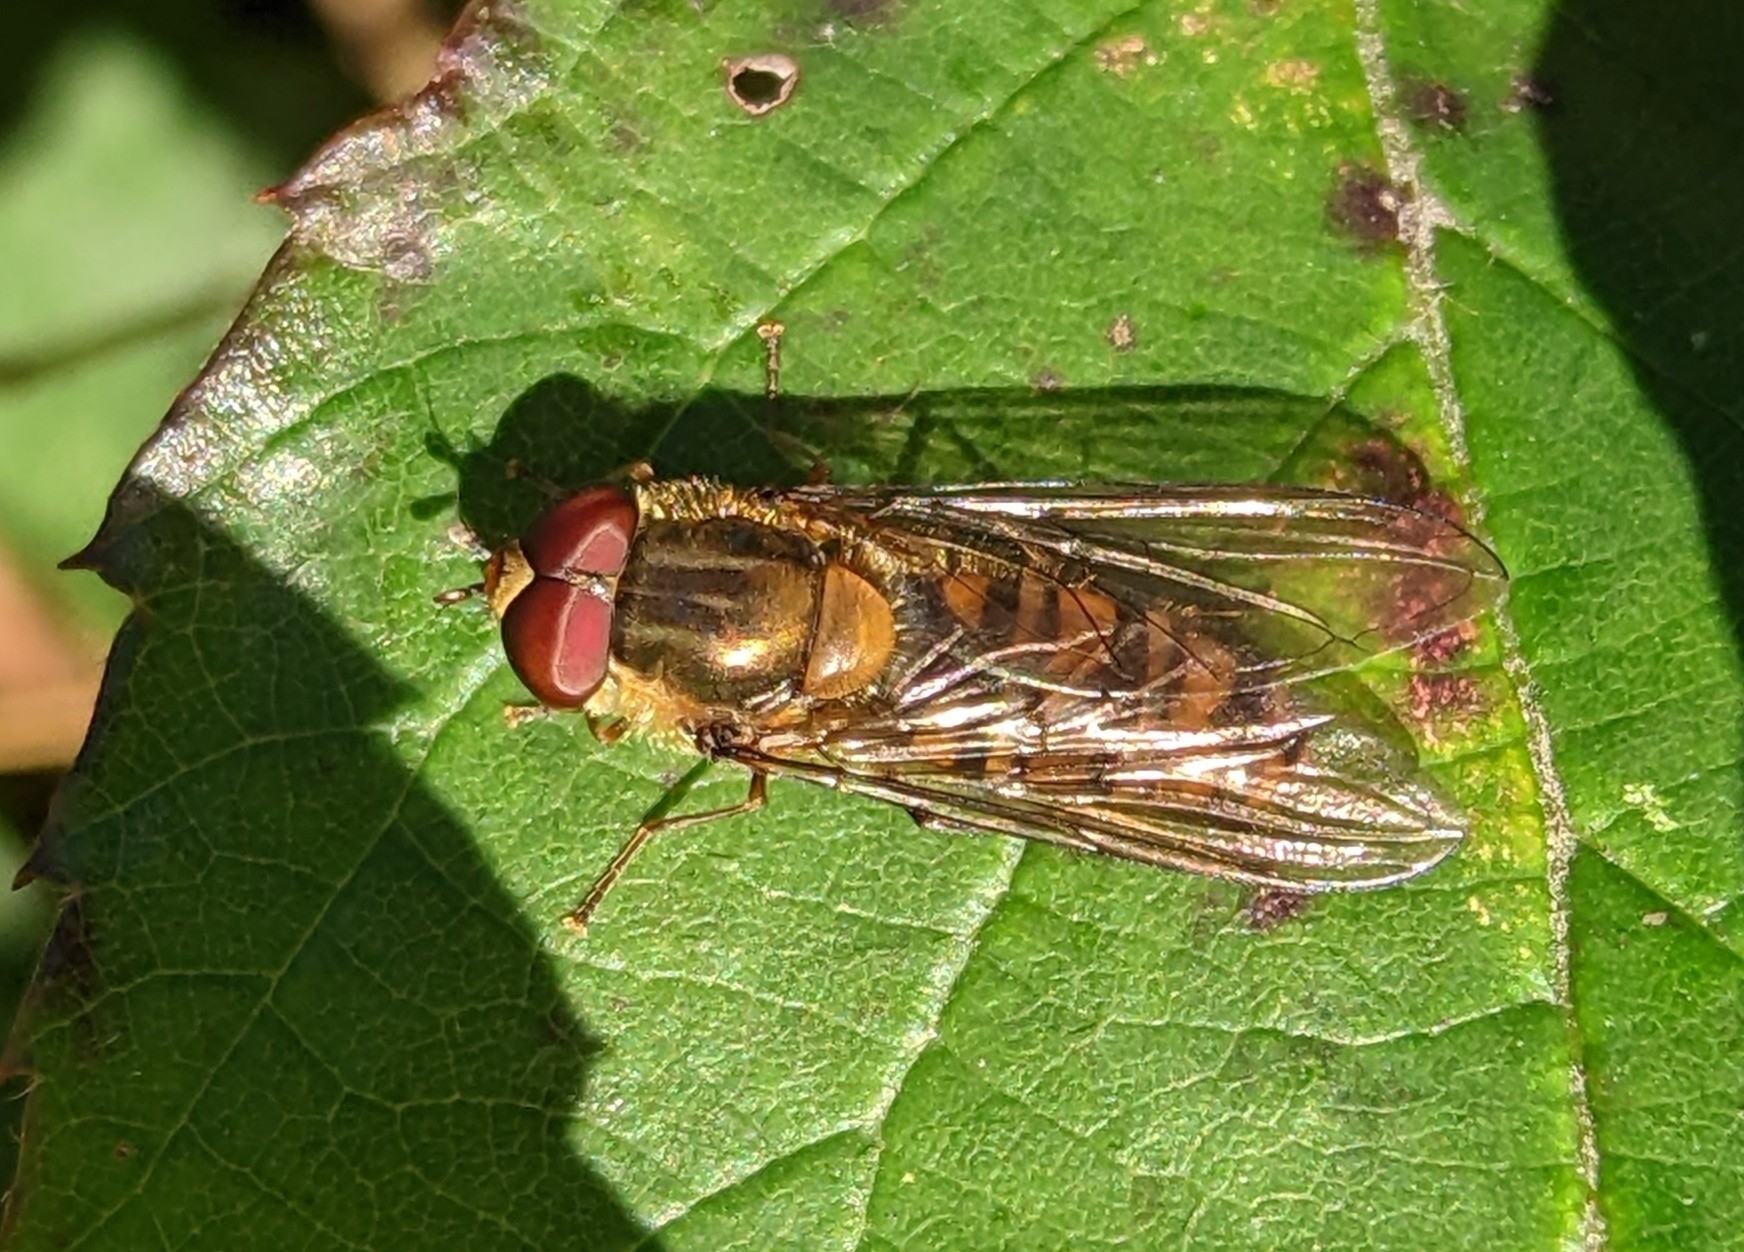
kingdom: Animalia
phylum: Arthropoda
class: Insecta
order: Diptera
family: Syrphidae
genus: Episyrphus
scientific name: Episyrphus balteatus
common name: Marmalade hoverfly
